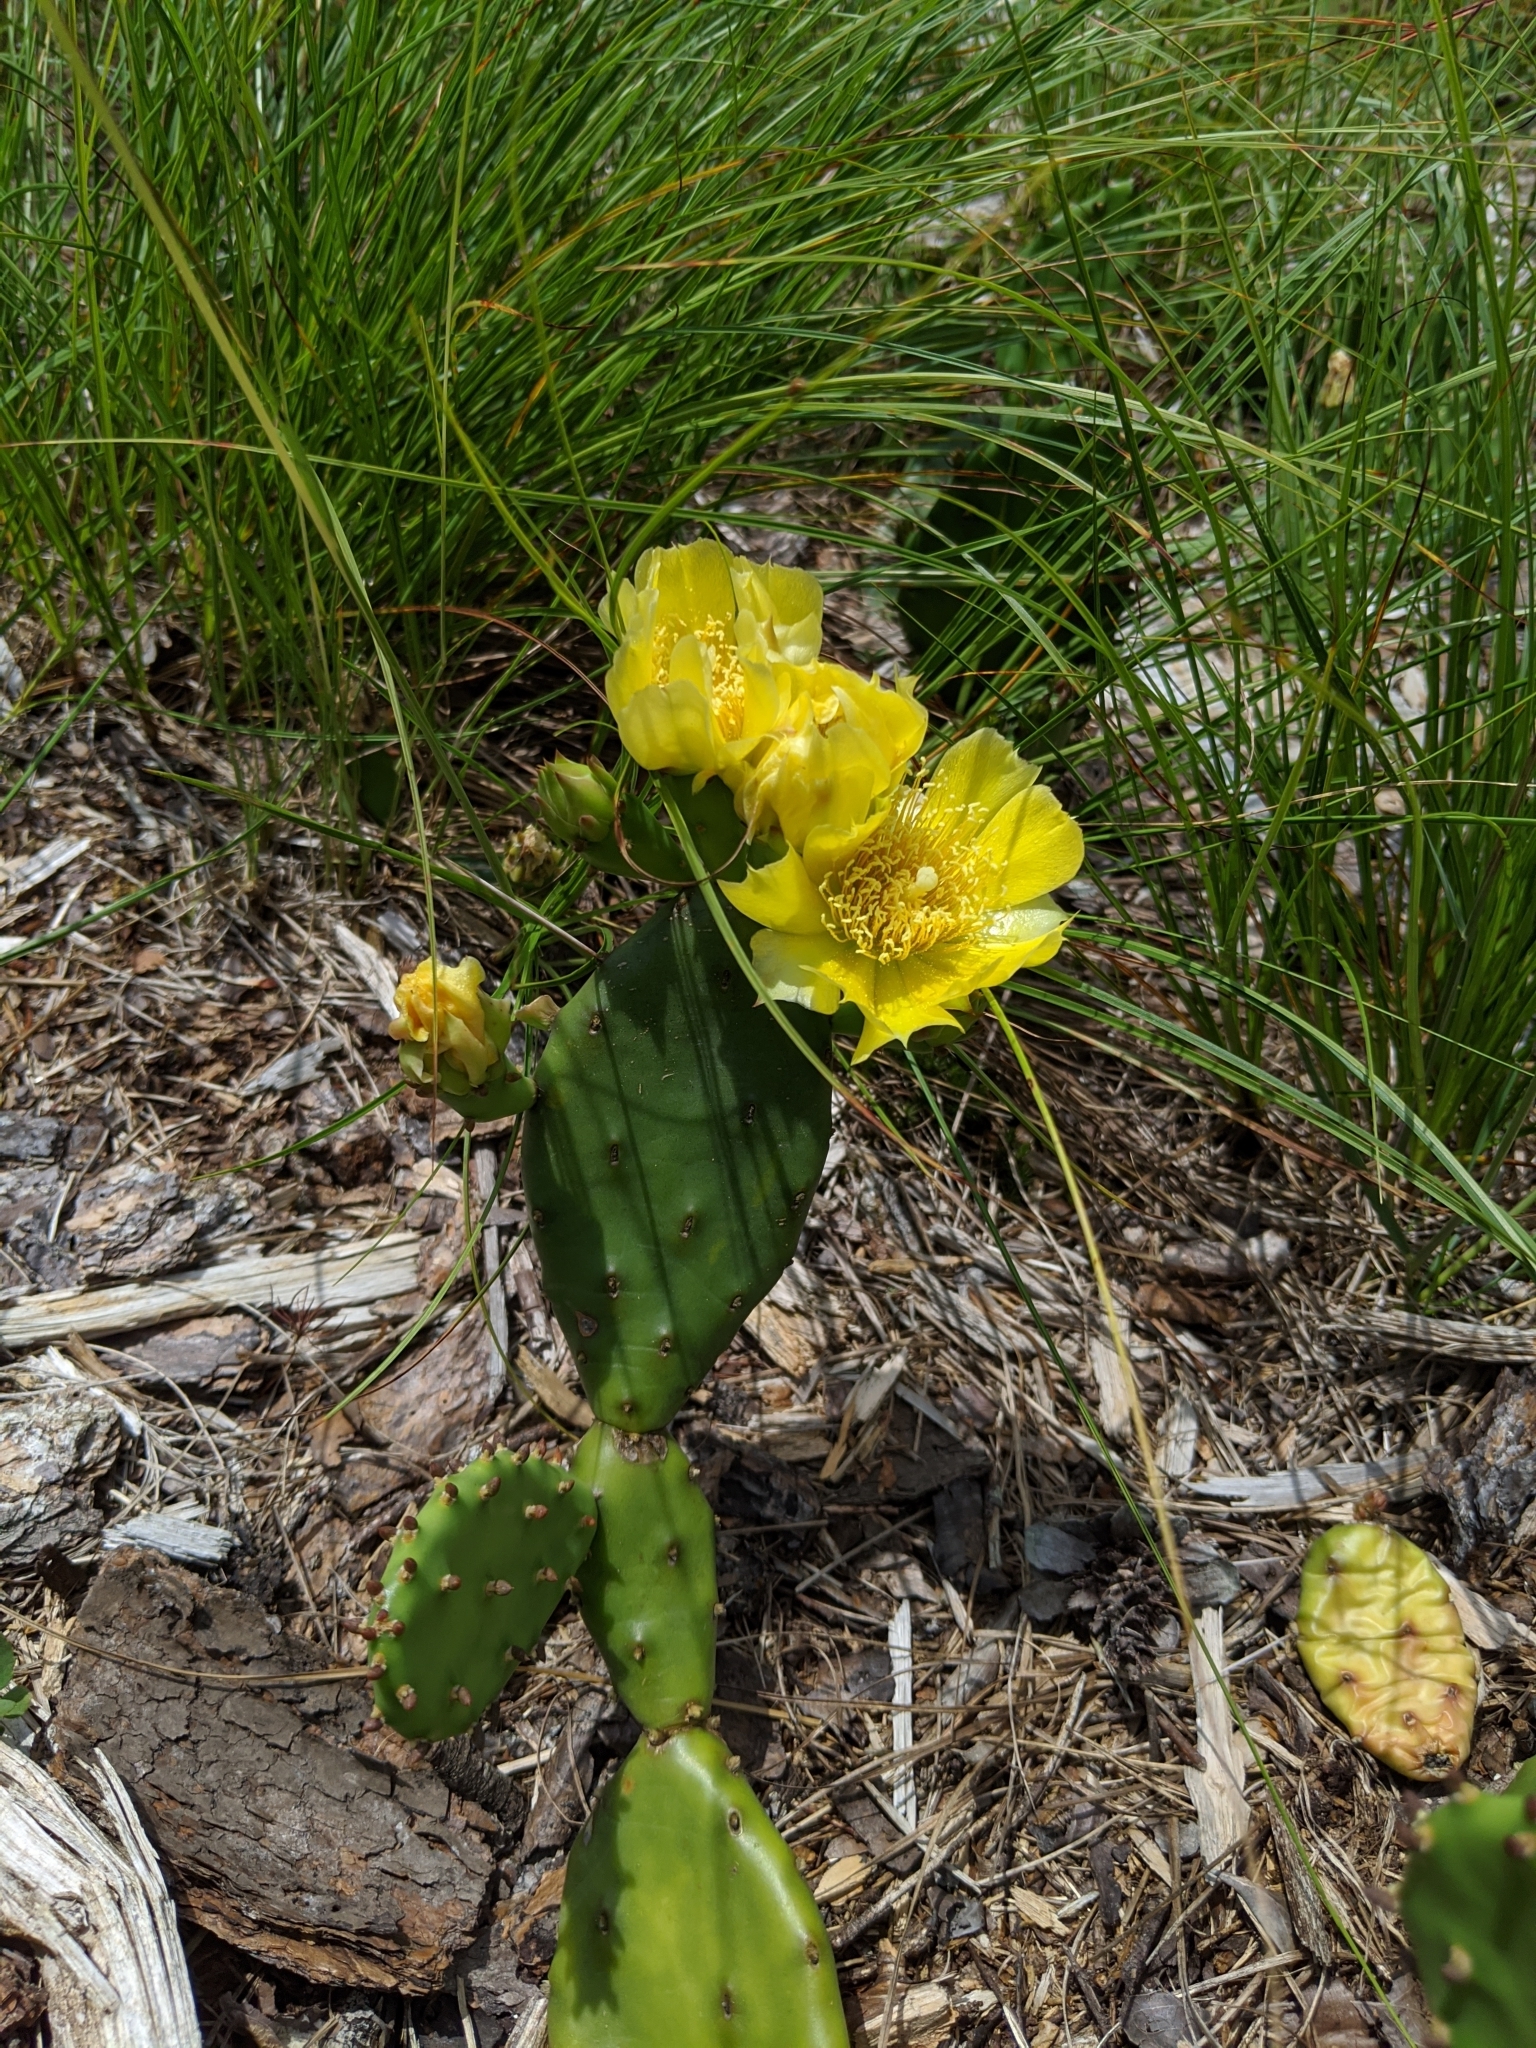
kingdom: Plantae
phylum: Tracheophyta
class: Magnoliopsida
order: Caryophyllales
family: Cactaceae
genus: Opuntia
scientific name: Opuntia humifusa
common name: Eastern prickly-pear
